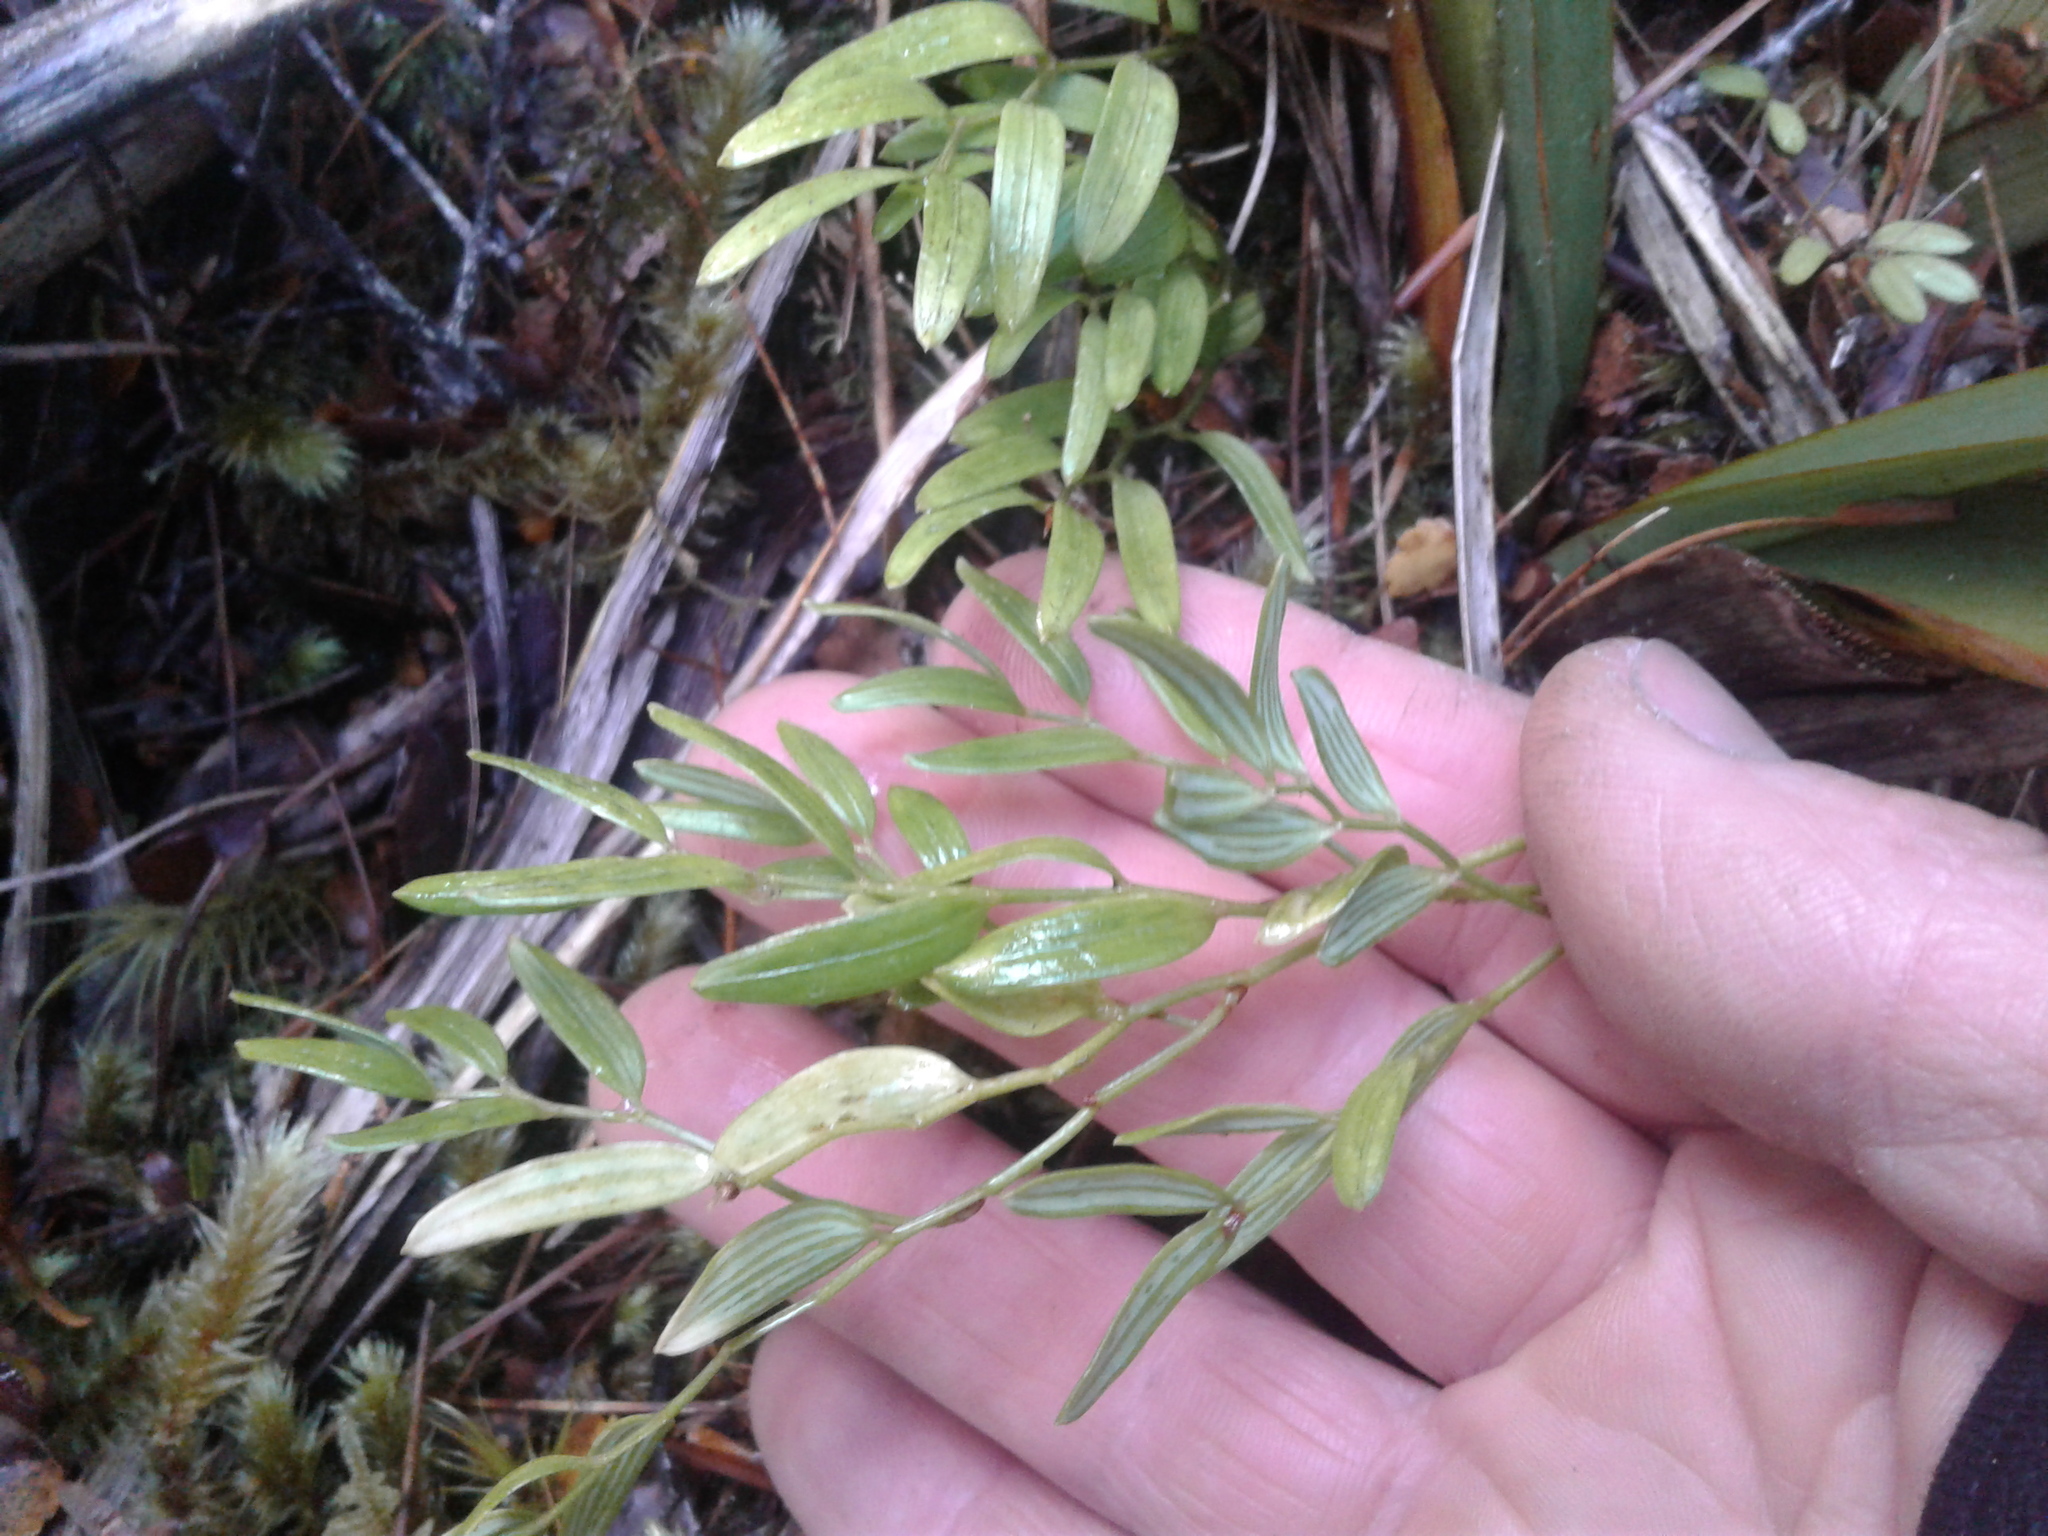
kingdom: Plantae
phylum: Tracheophyta
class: Liliopsida
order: Liliales
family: Alstroemeriaceae
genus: Luzuriaga
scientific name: Luzuriaga parviflora
